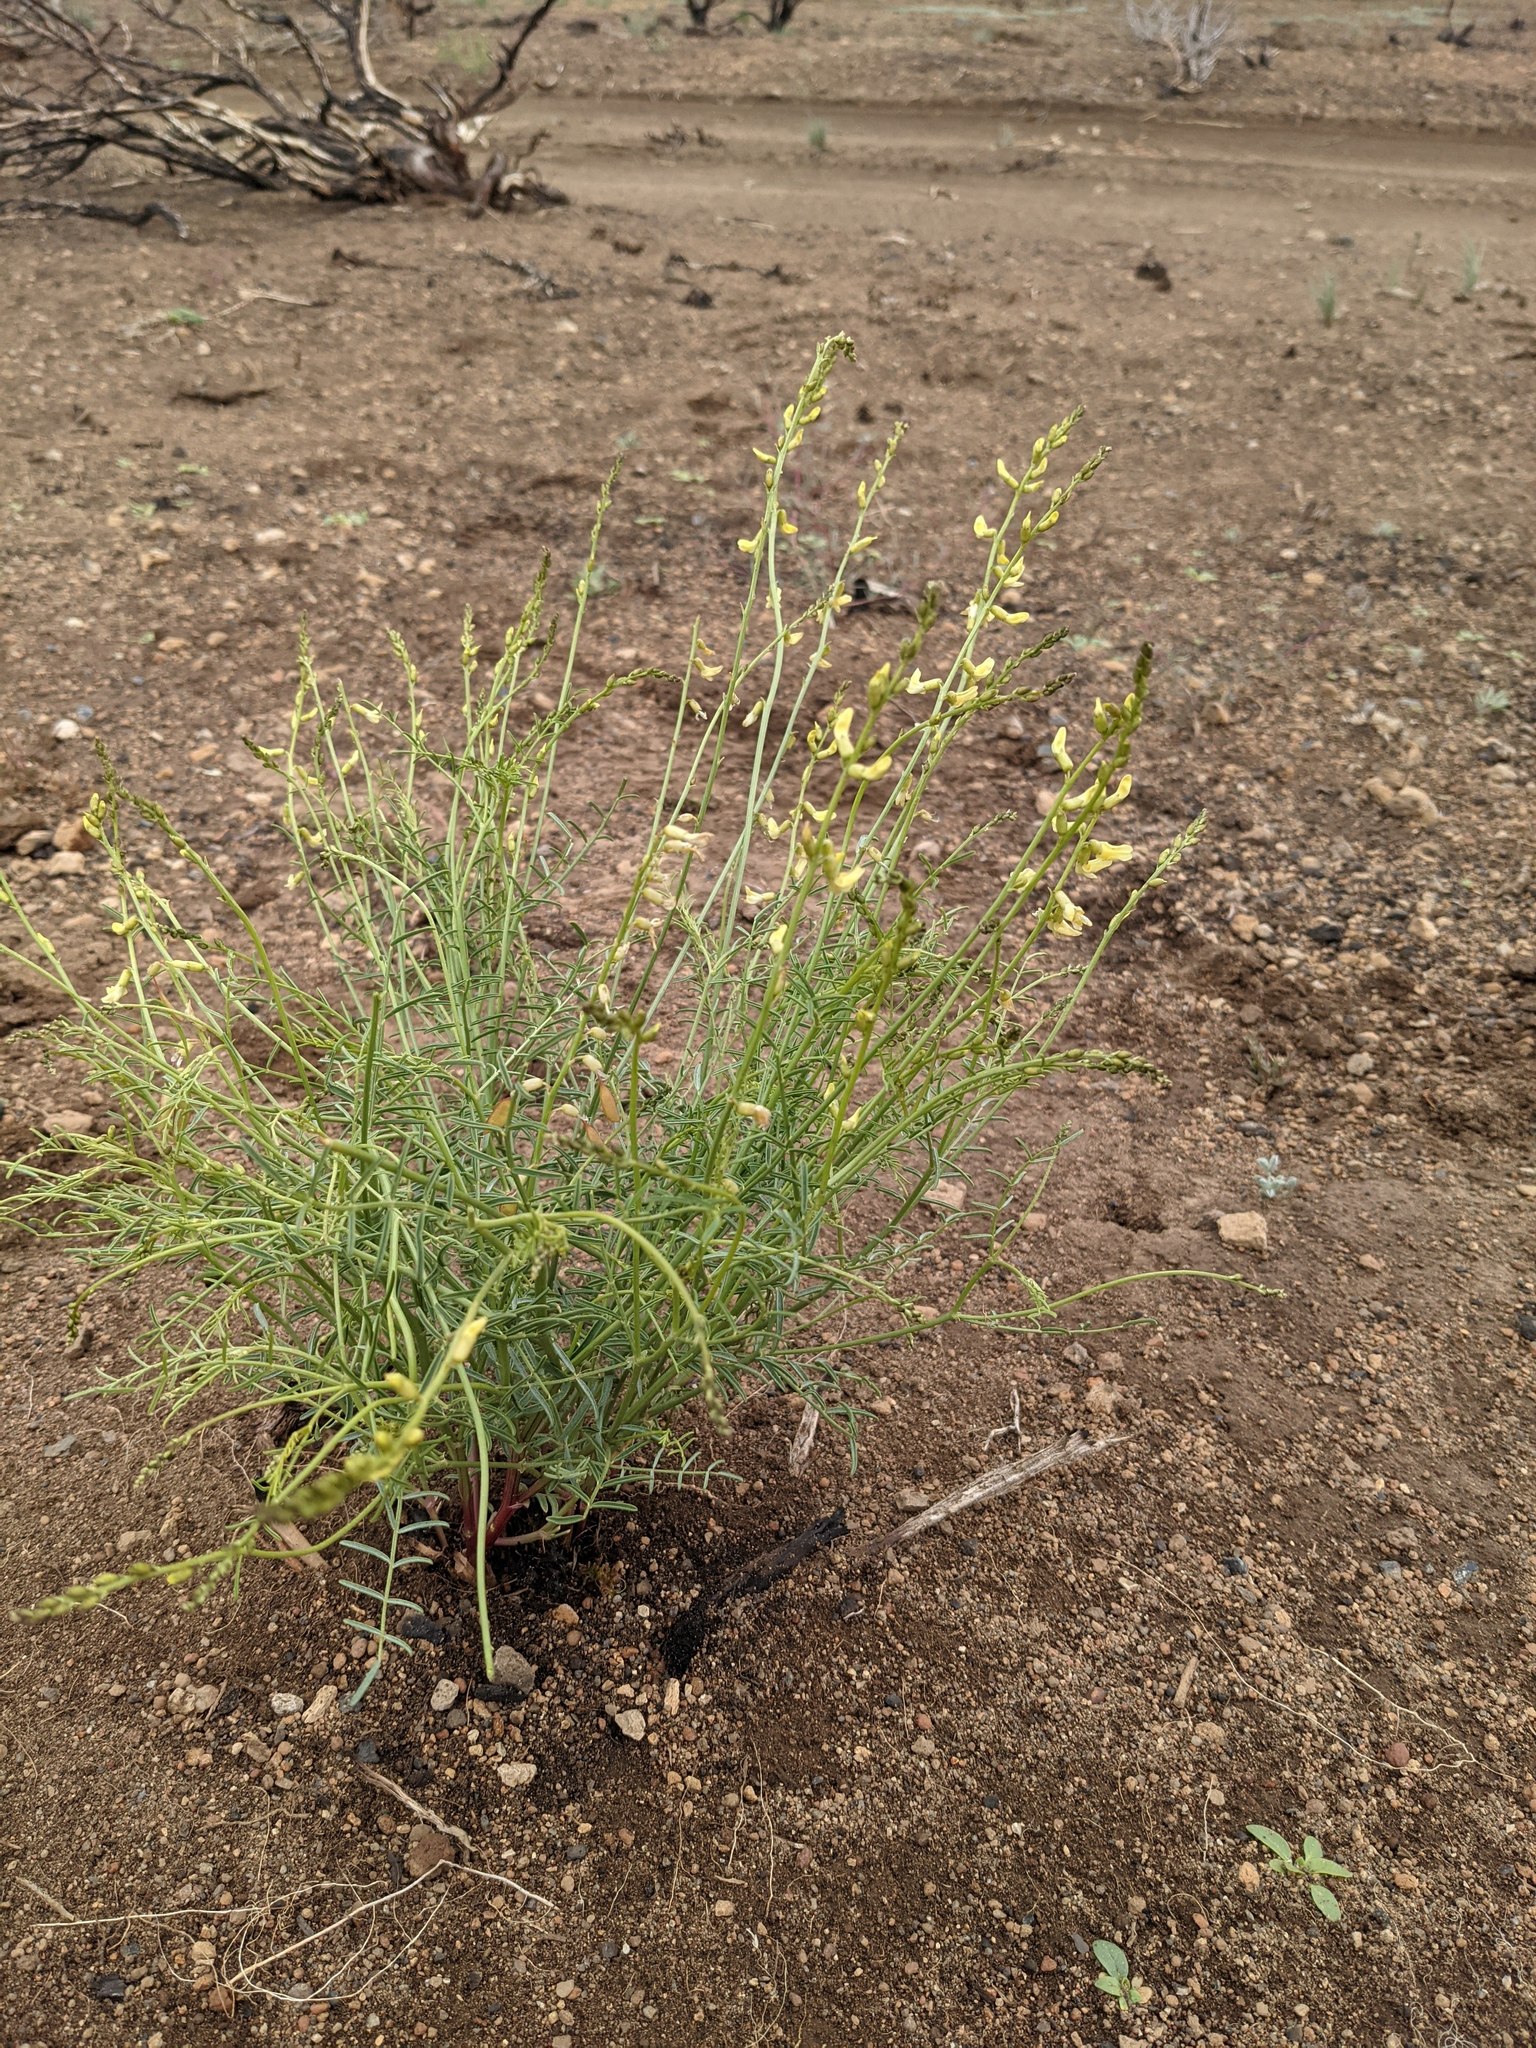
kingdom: Plantae
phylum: Tracheophyta
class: Magnoliopsida
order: Fabales
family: Fabaceae
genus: Astragalus
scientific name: Astragalus filipes
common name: Basalt milk-vetch
